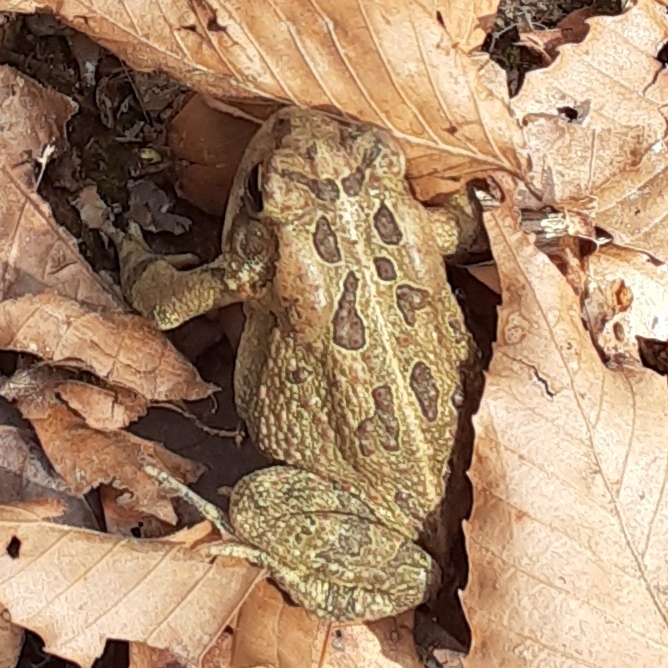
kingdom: Animalia
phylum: Chordata
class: Amphibia
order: Anura
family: Bufonidae
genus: Anaxyrus
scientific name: Anaxyrus fowleri
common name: Fowler's toad
